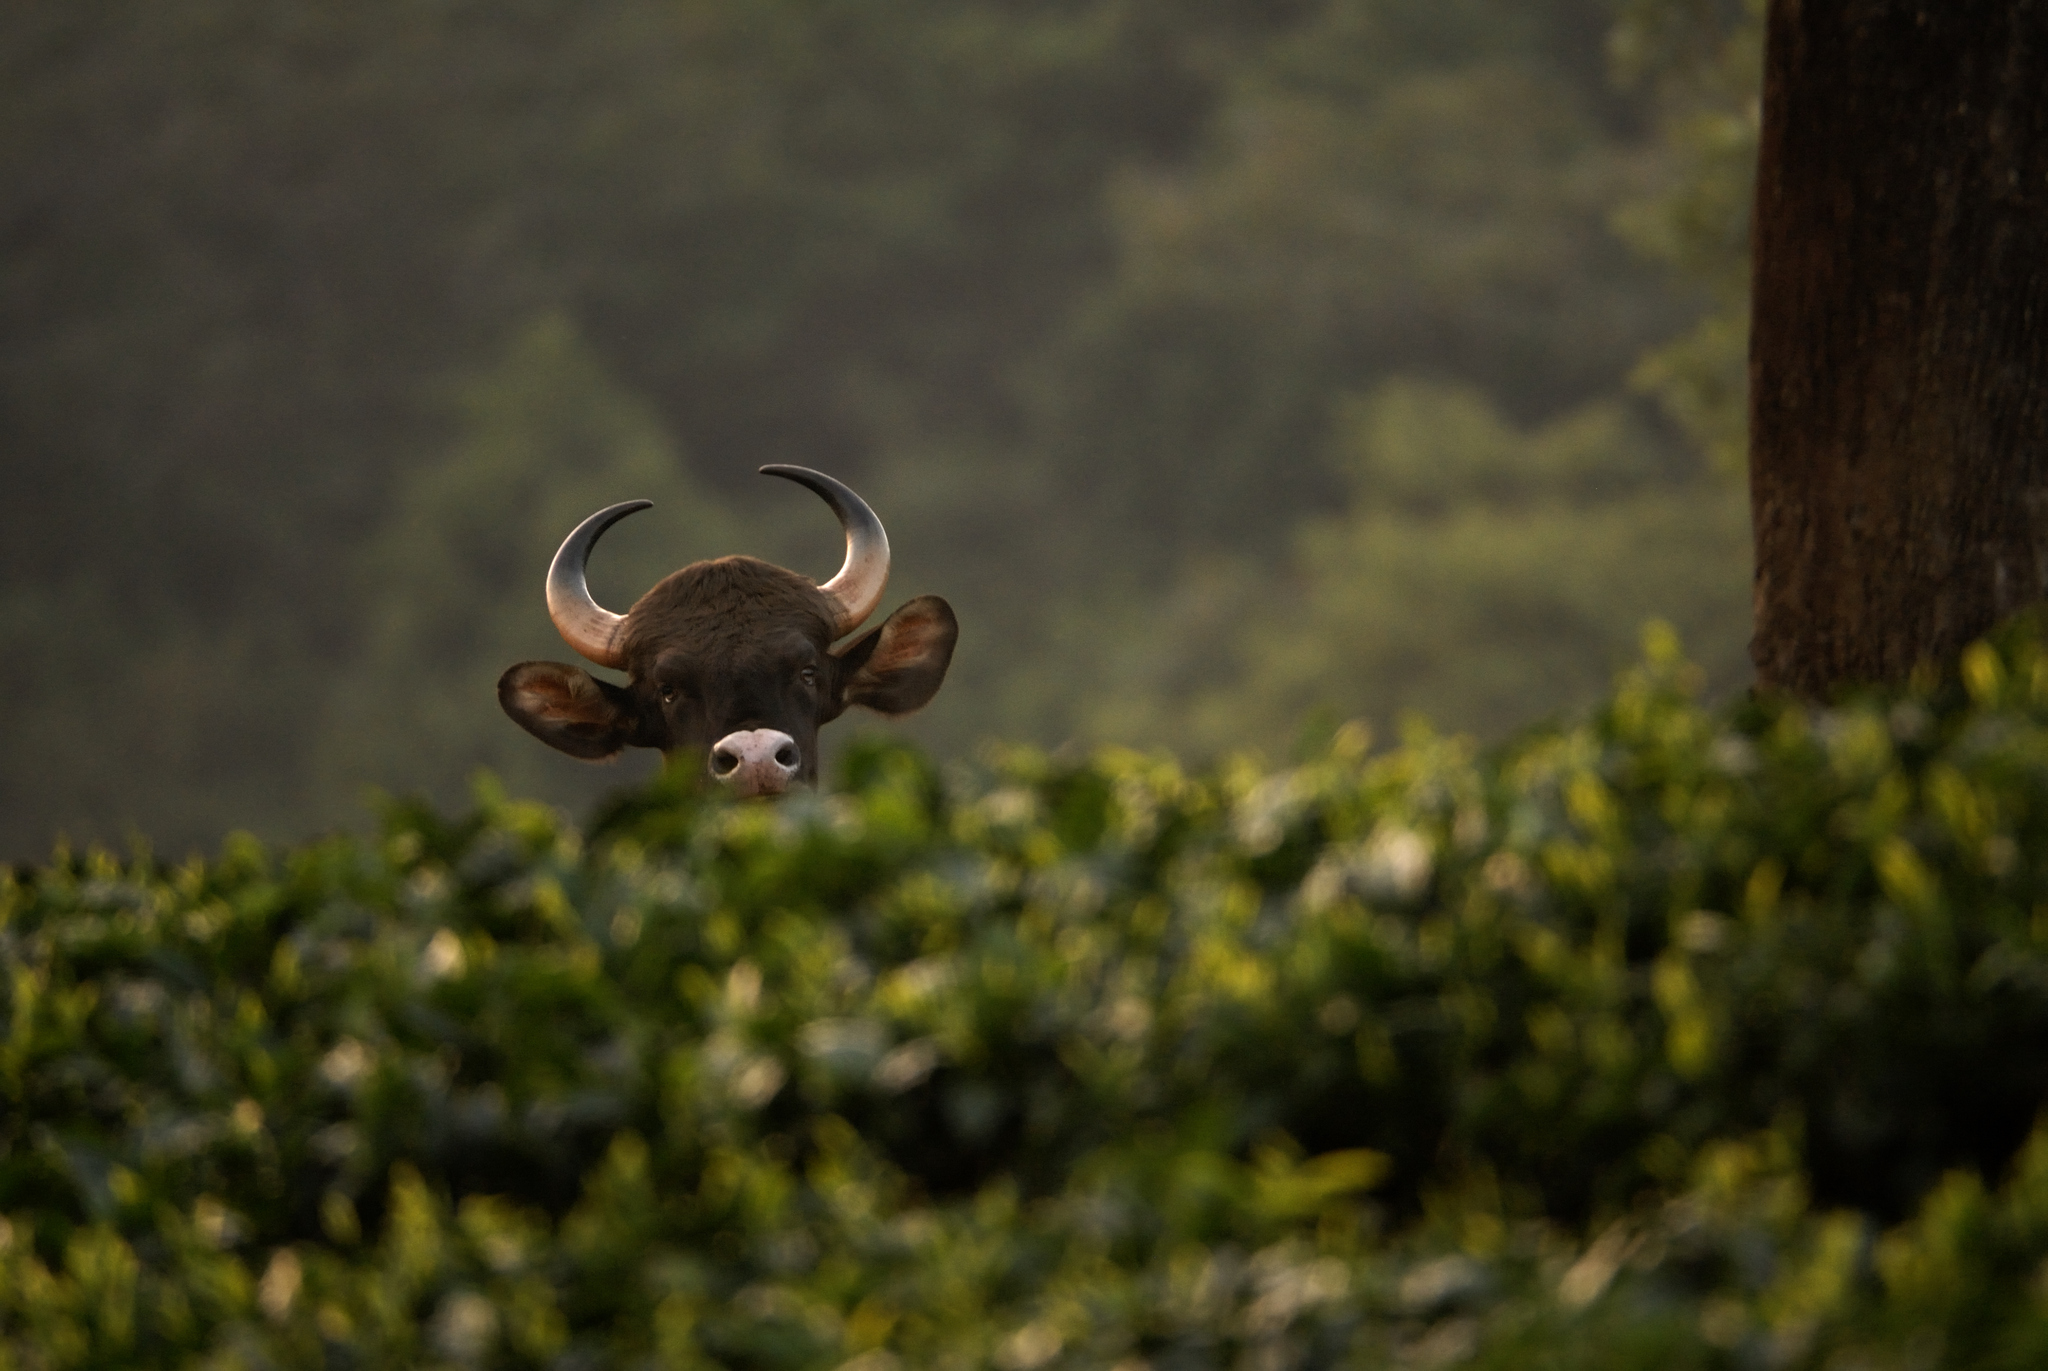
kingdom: Animalia
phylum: Chordata
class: Mammalia
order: Artiodactyla
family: Bovidae
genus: Bos
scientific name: Bos frontalis
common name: Gaur
